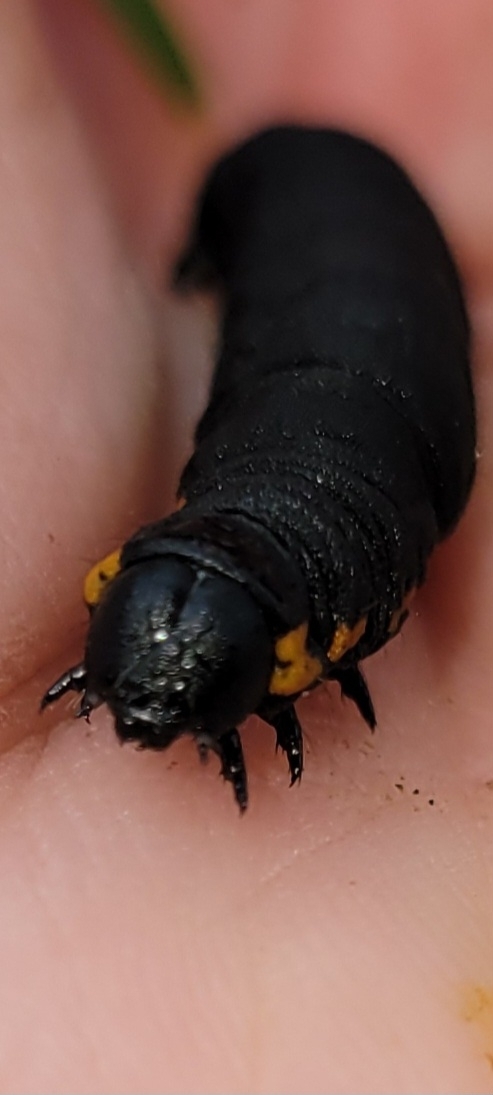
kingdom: Animalia
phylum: Arthropoda
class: Insecta
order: Lepidoptera
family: Noctuidae
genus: Cucullia
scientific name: Cucullia intermedia
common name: Goldenrod cutworm
